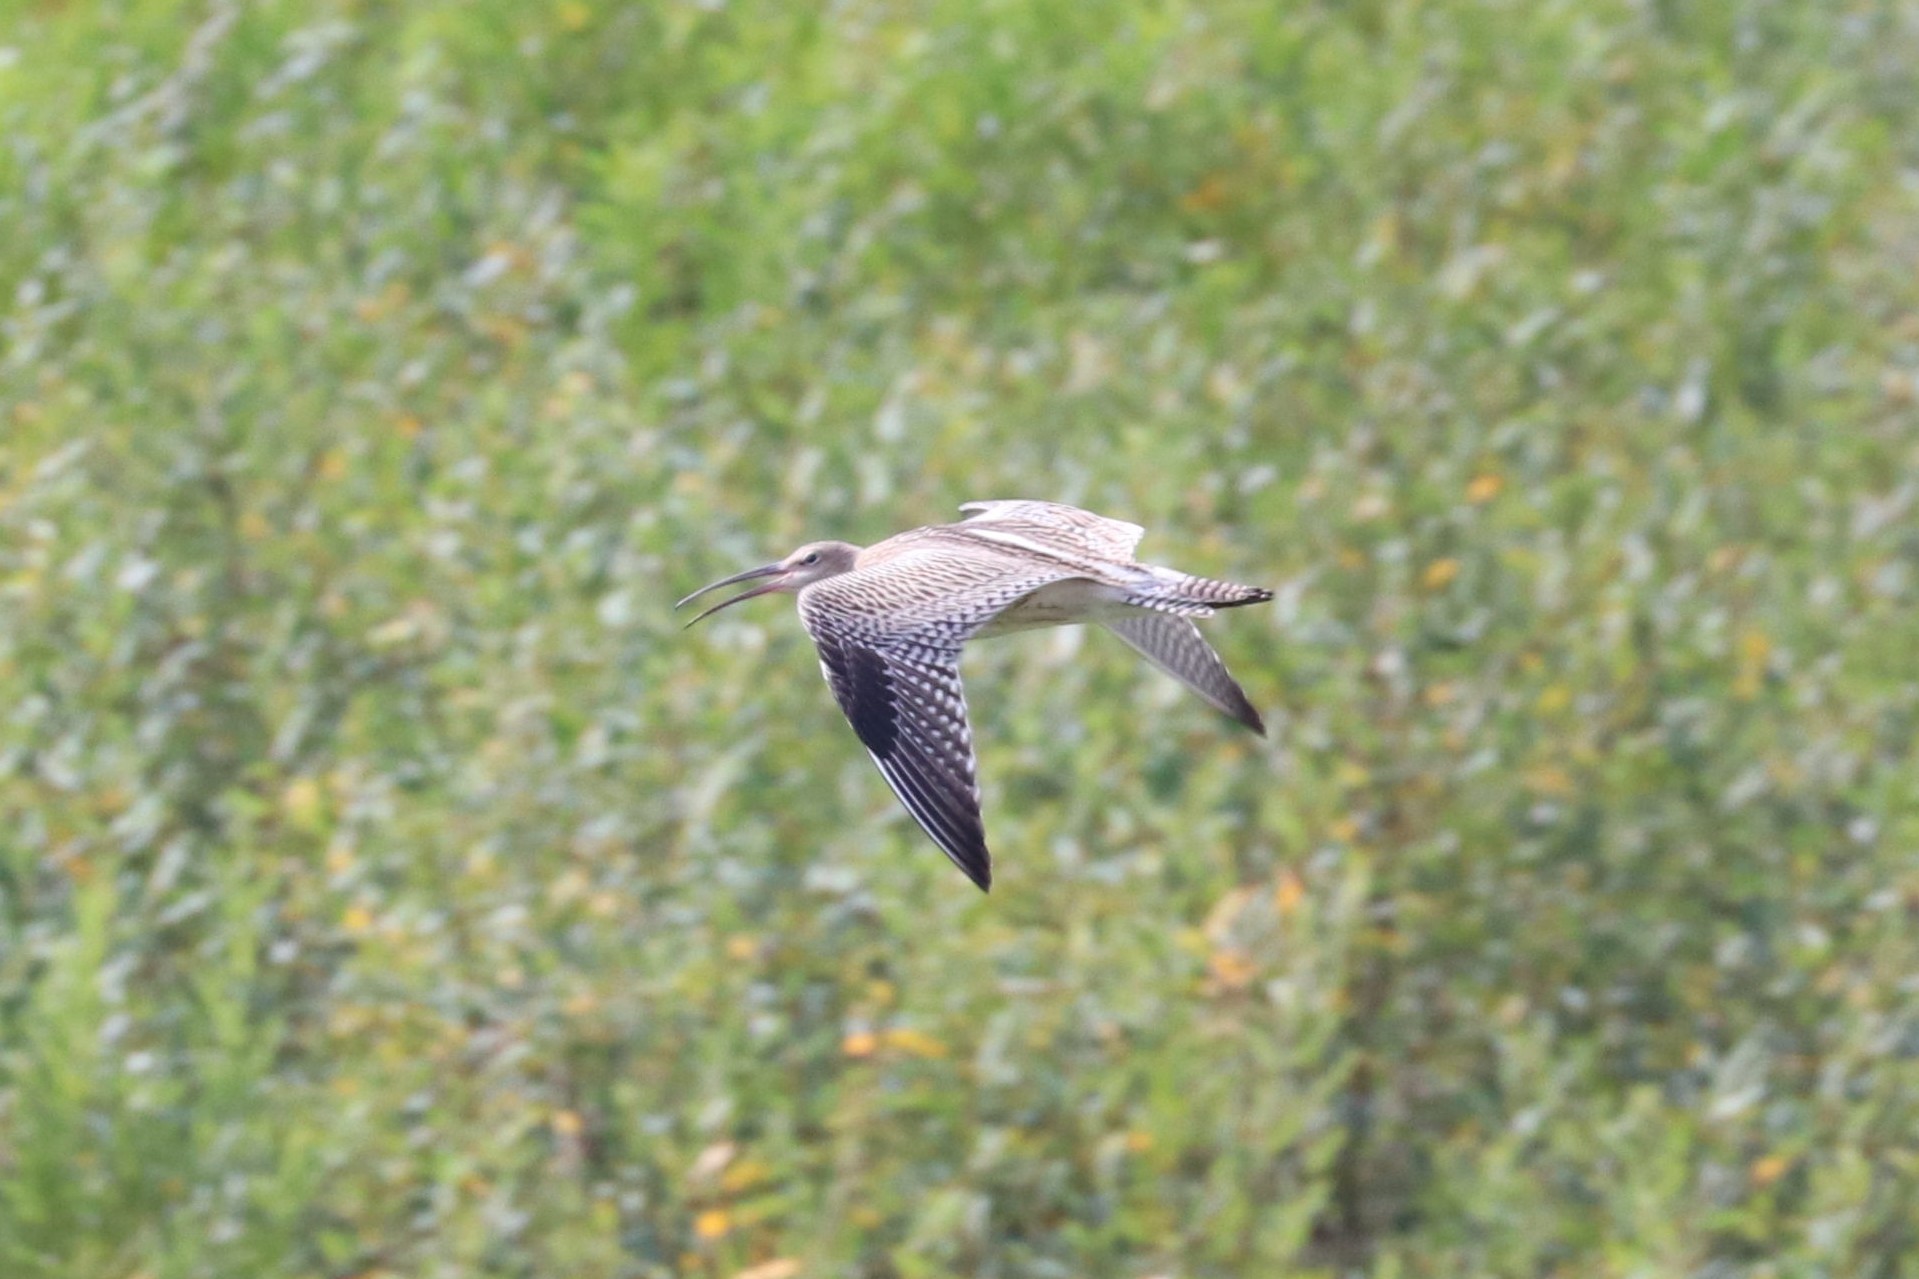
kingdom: Animalia
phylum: Chordata
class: Aves
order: Charadriiformes
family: Scolopacidae
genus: Numenius
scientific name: Numenius arquata
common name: Eurasian curlew
